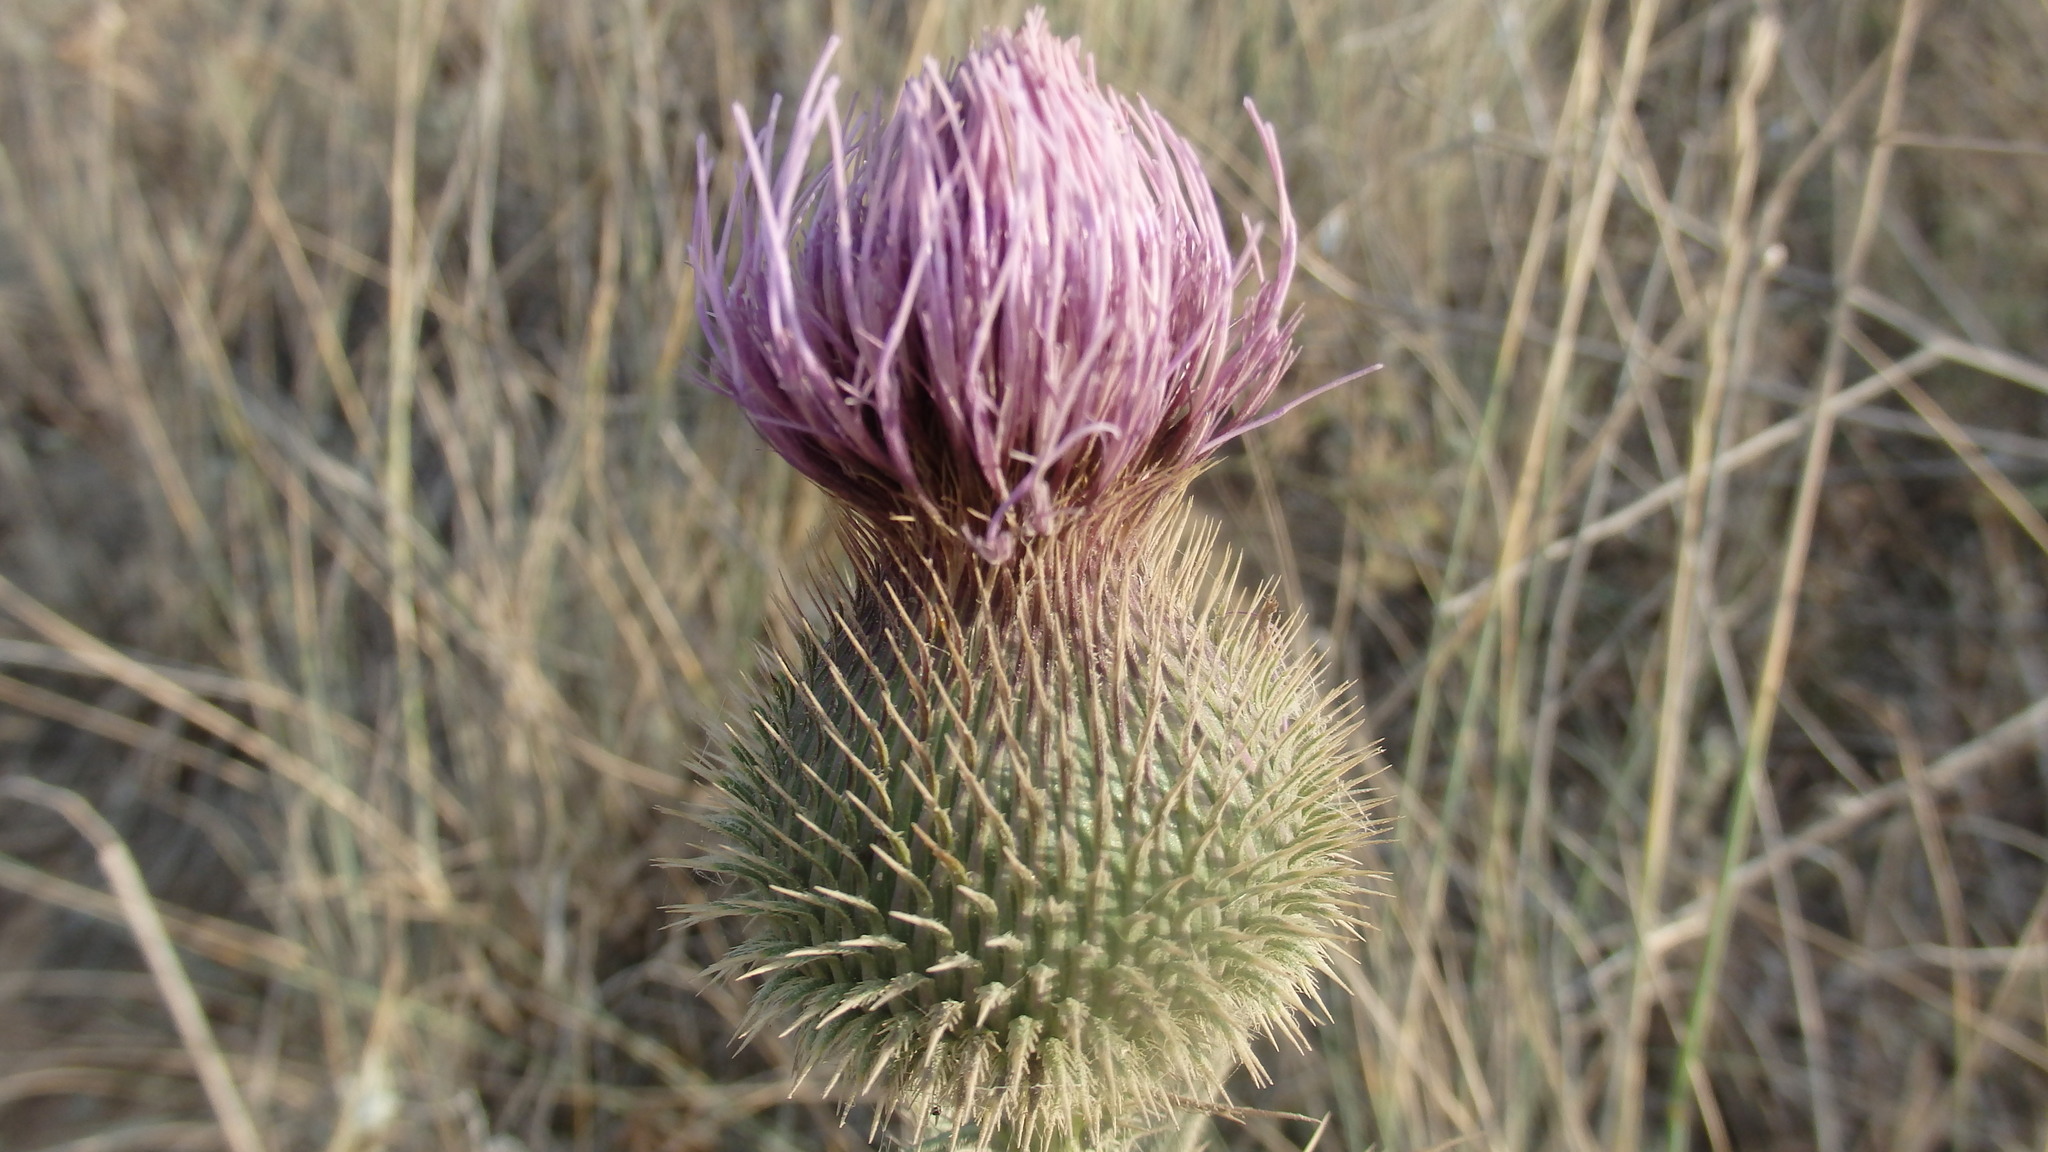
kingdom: Plantae
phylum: Tracheophyta
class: Magnoliopsida
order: Asterales
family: Asteraceae
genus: Cirsium
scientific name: Cirsium vulgare
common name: Bull thistle
